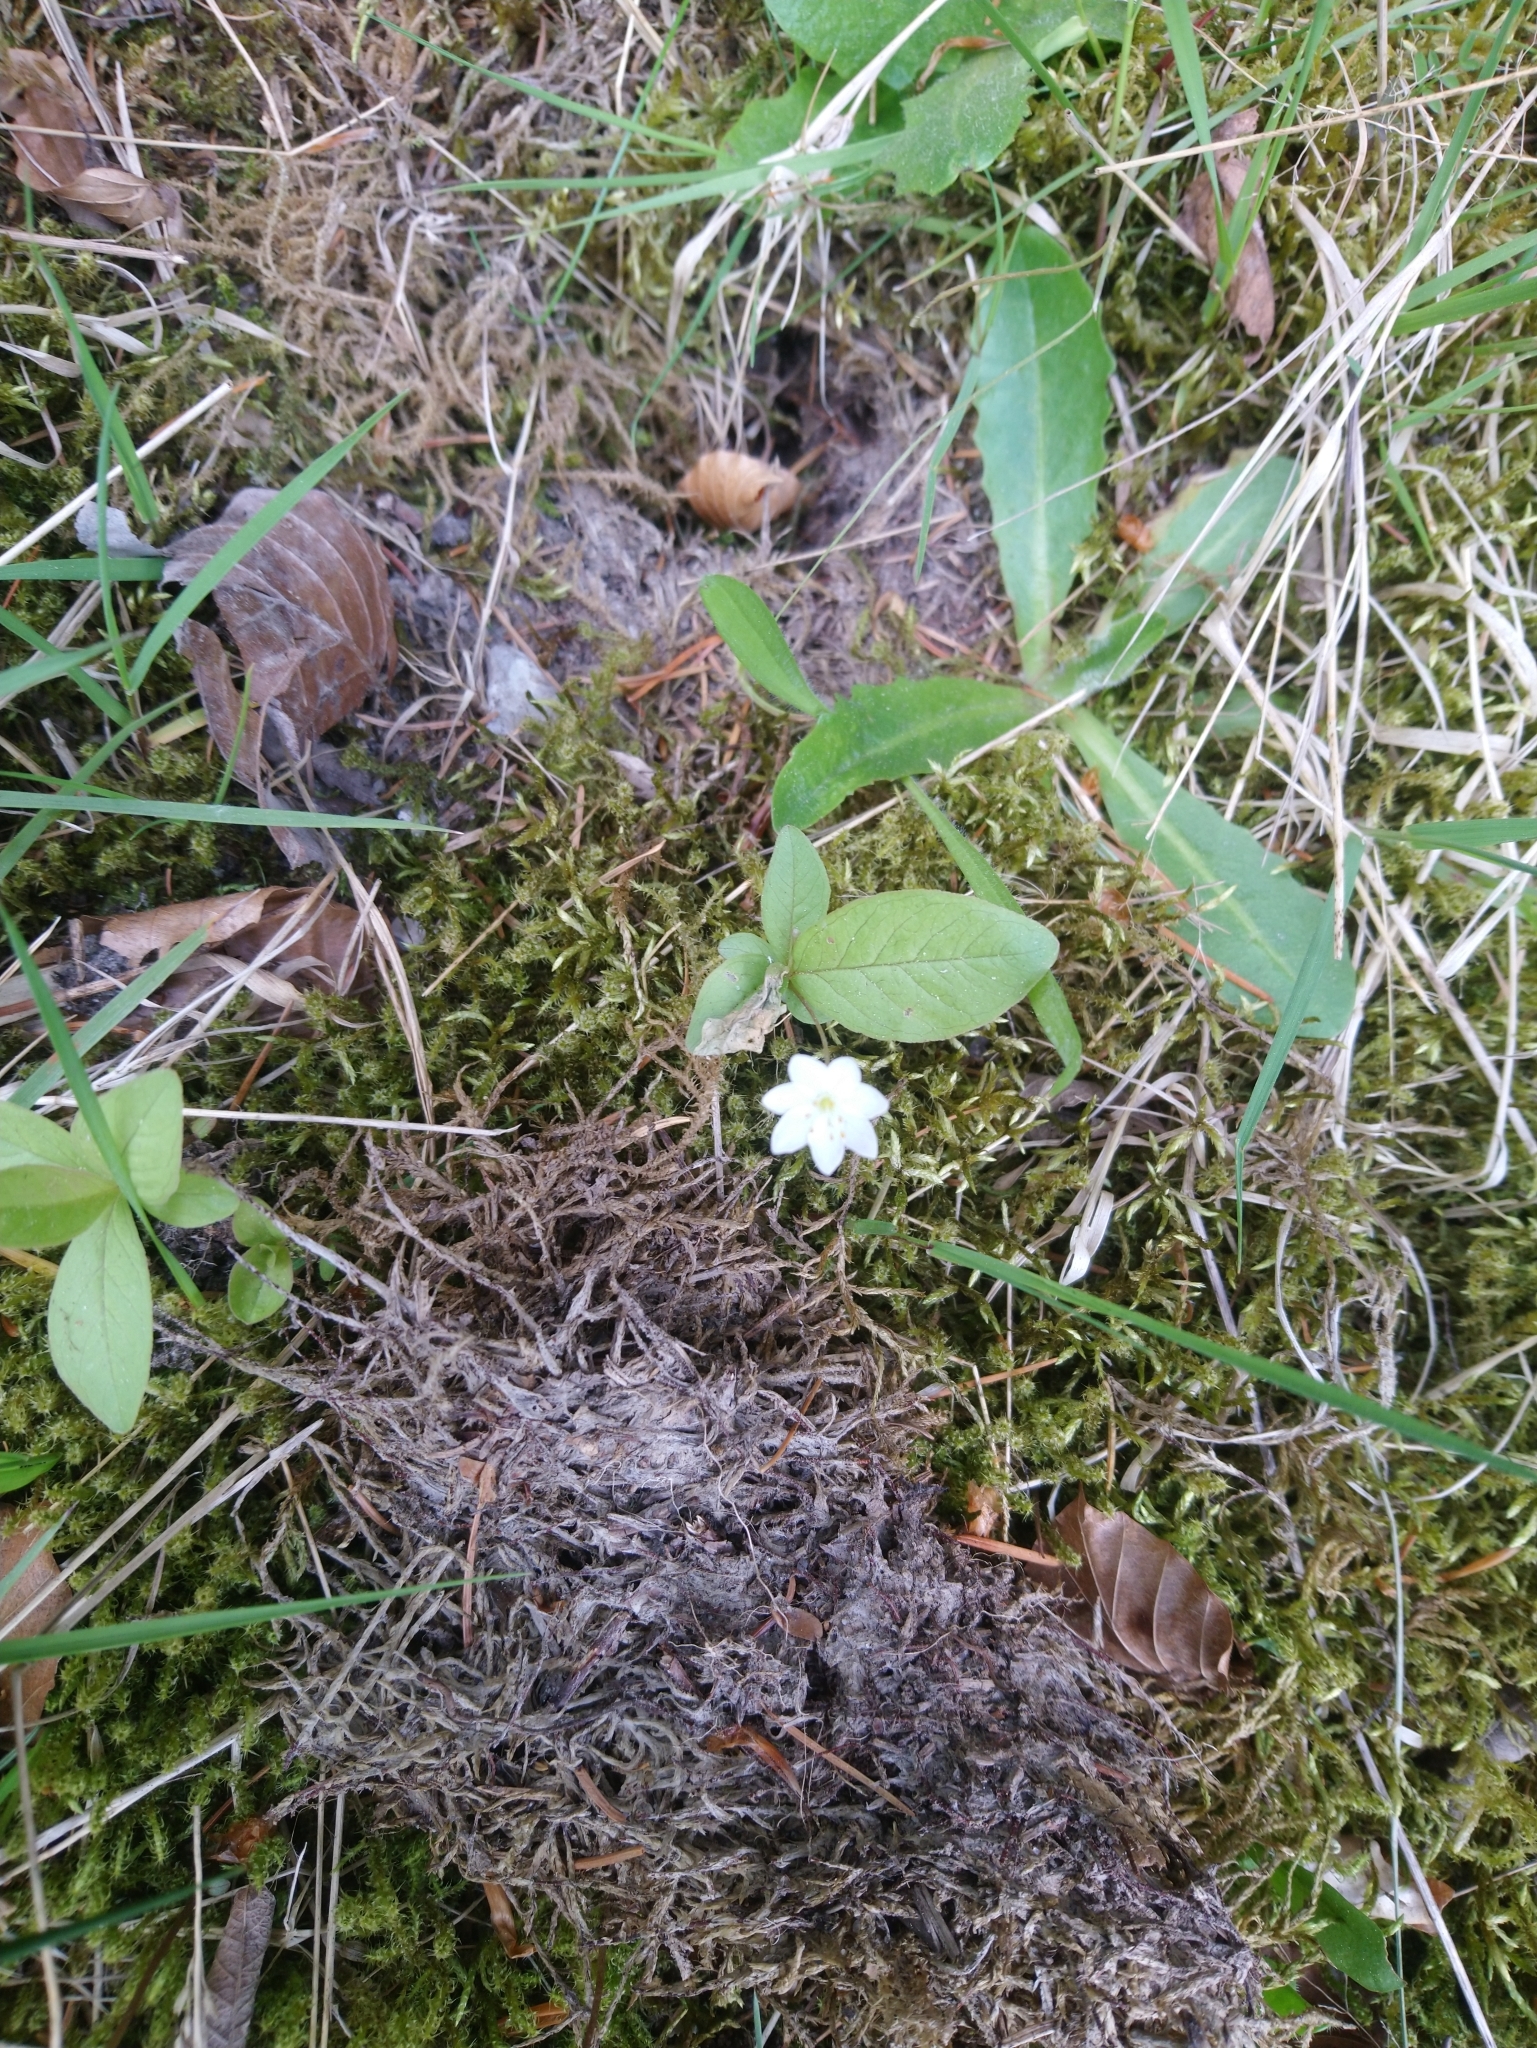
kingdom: Plantae
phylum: Tracheophyta
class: Magnoliopsida
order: Ericales
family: Primulaceae
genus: Lysimachia
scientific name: Lysimachia europaea
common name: Arctic starflower
